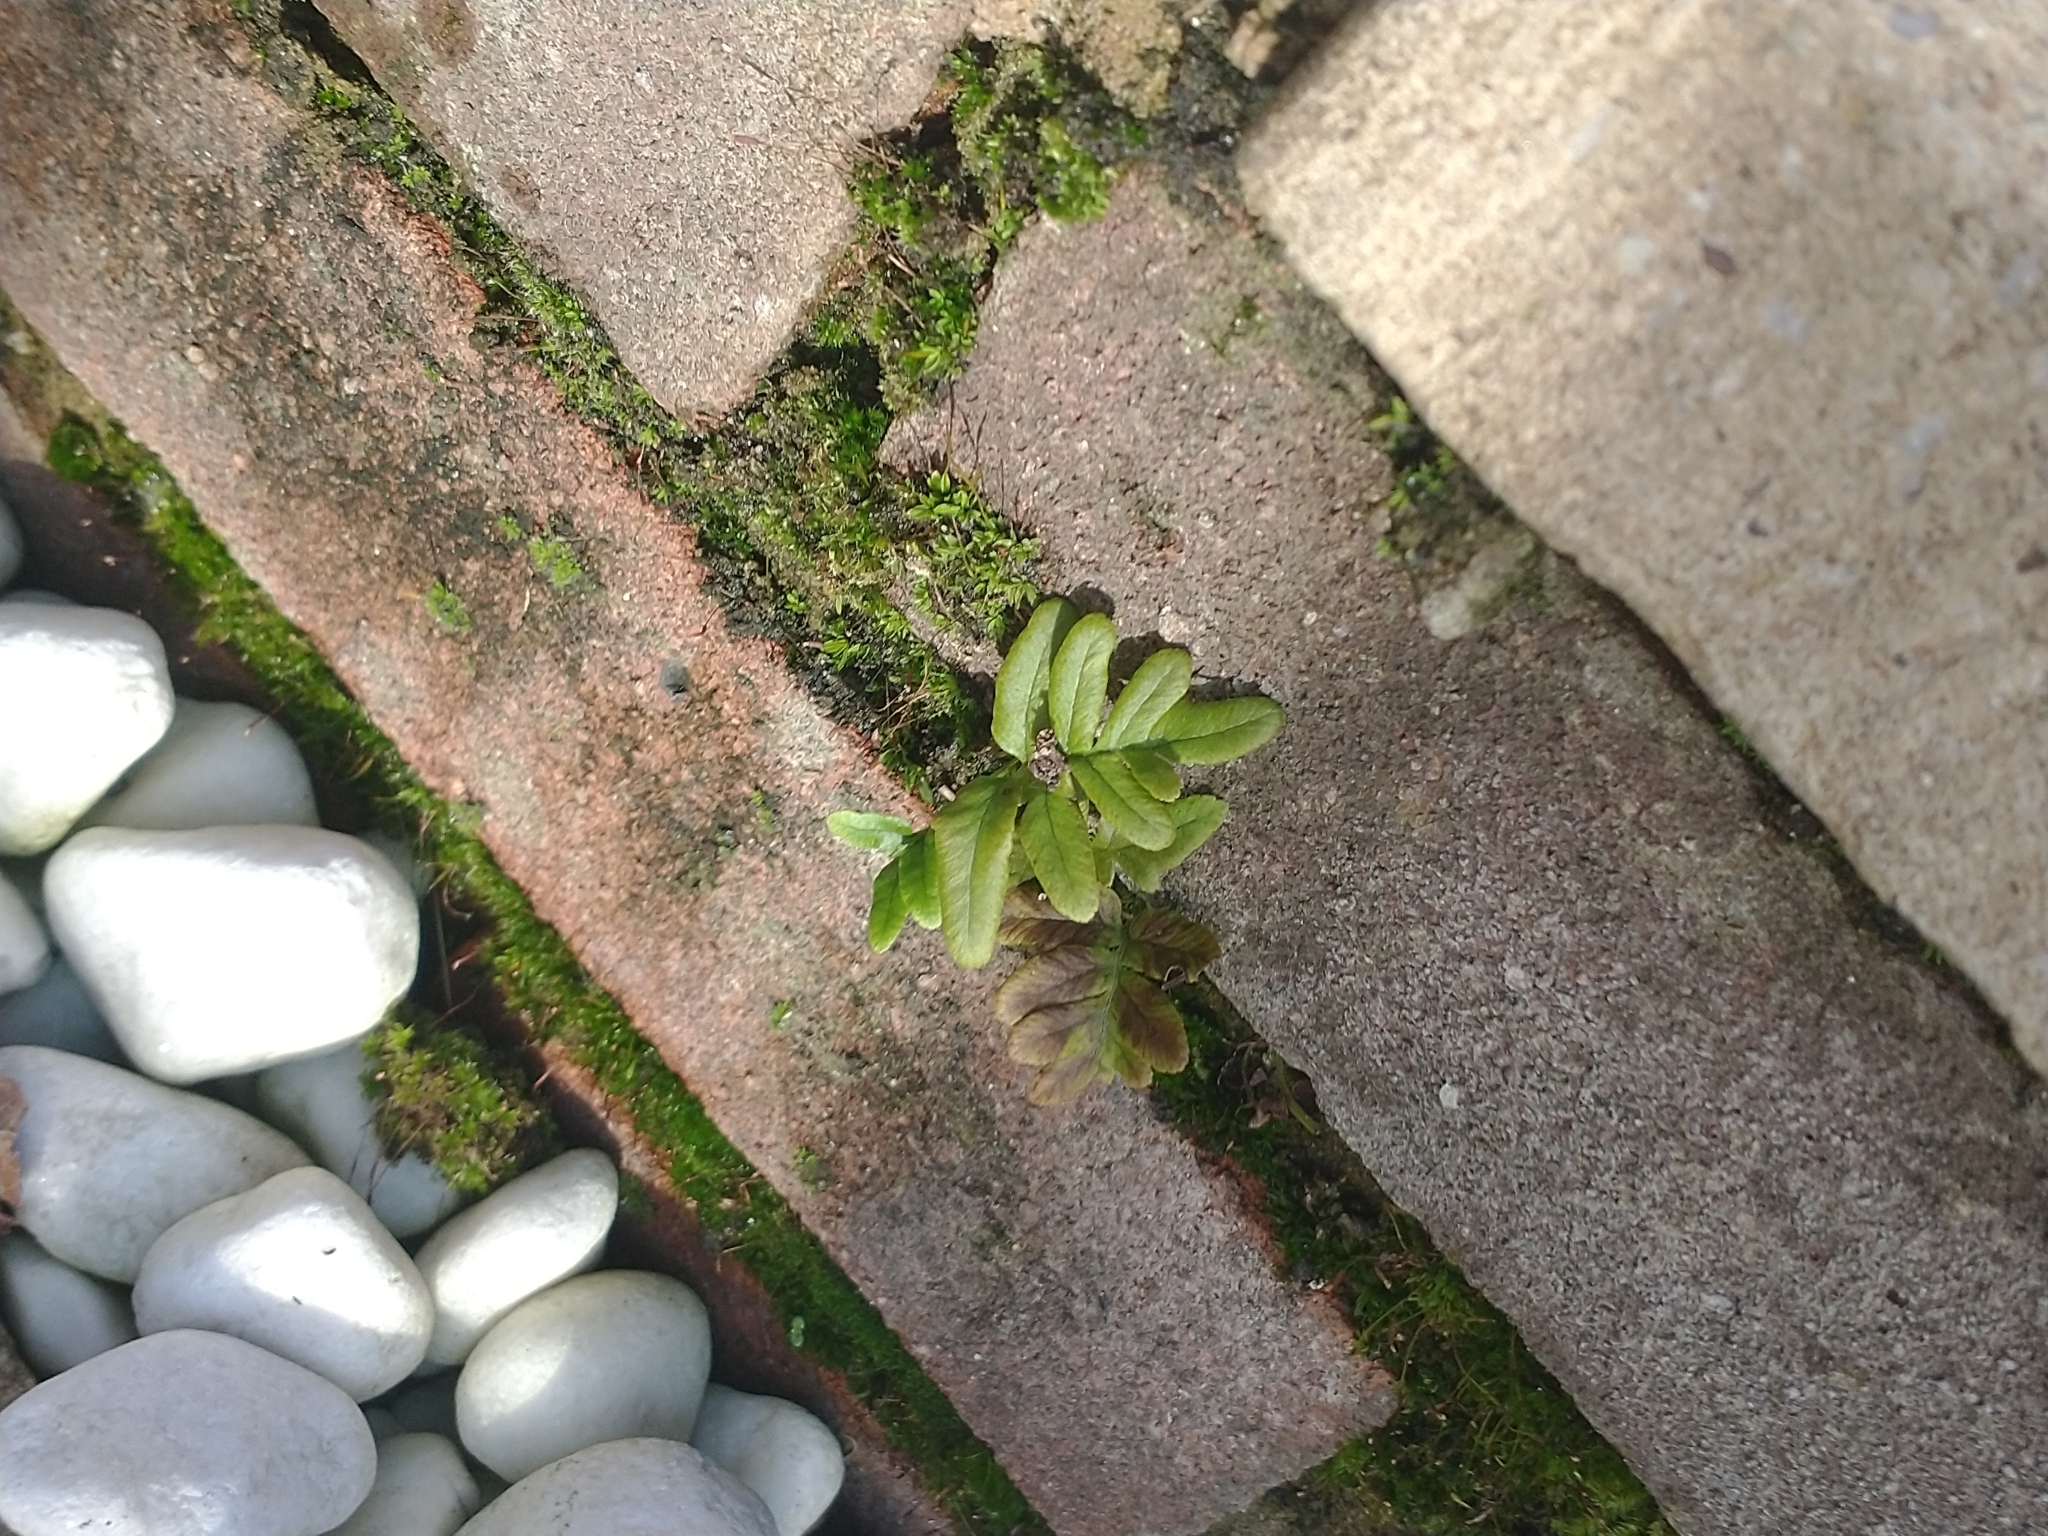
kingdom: Plantae
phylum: Tracheophyta
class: Polypodiopsida
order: Polypodiales
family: Polypodiaceae
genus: Polypodium
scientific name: Polypodium
